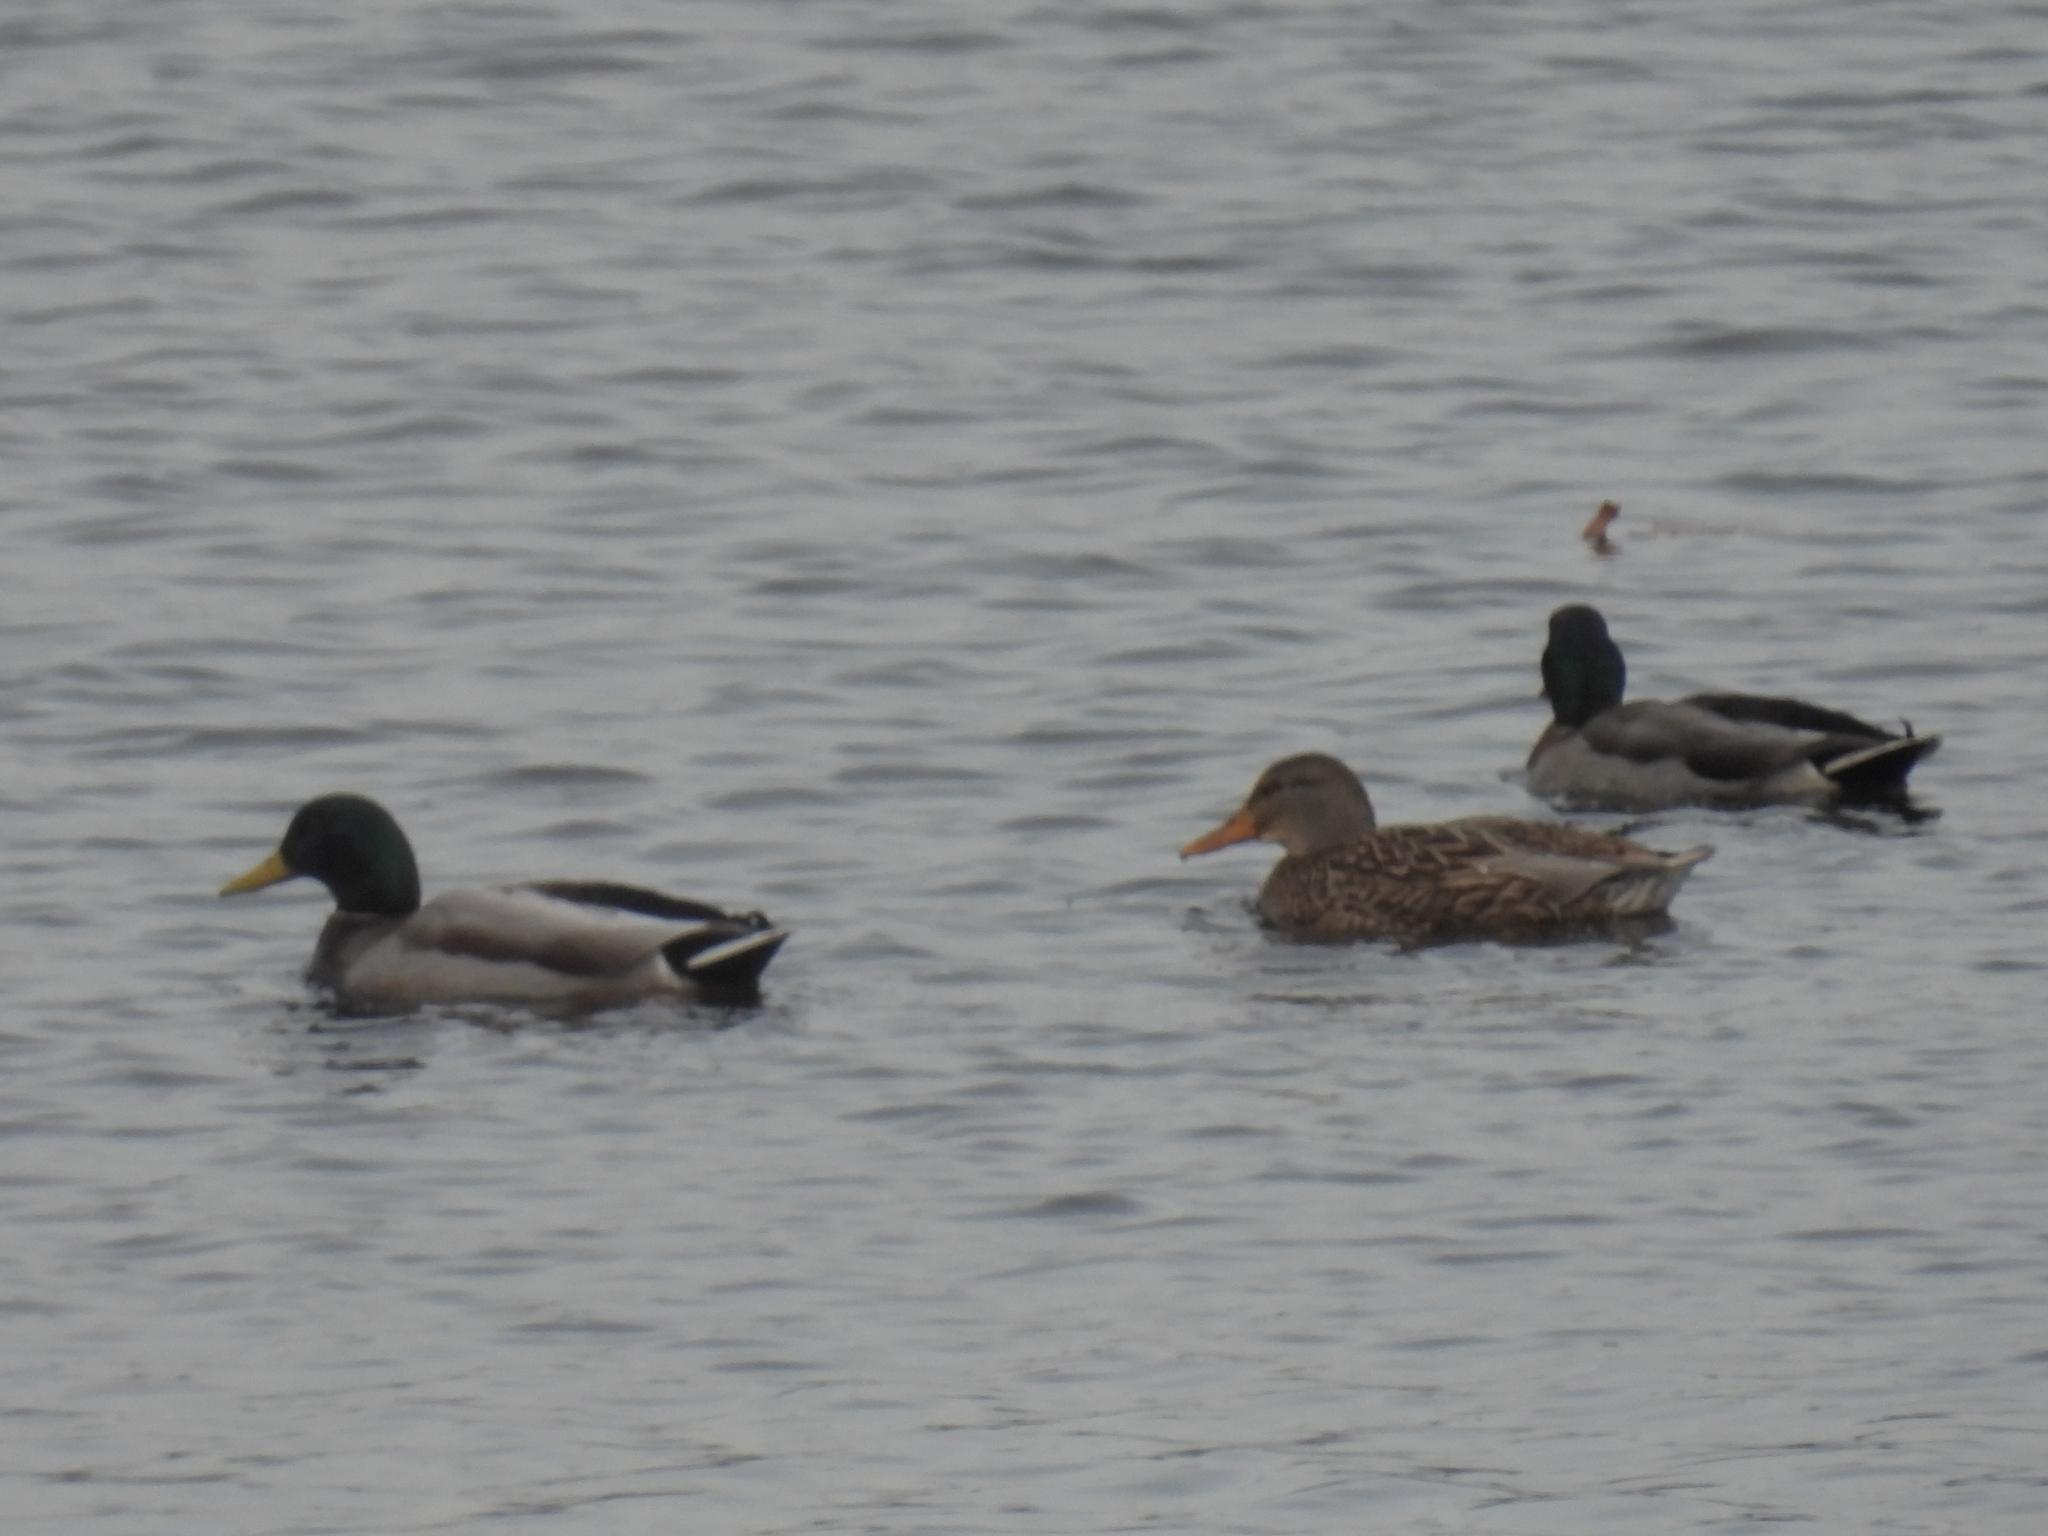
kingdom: Animalia
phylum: Chordata
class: Aves
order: Anseriformes
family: Anatidae
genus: Anas
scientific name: Anas platyrhynchos
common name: Mallard
